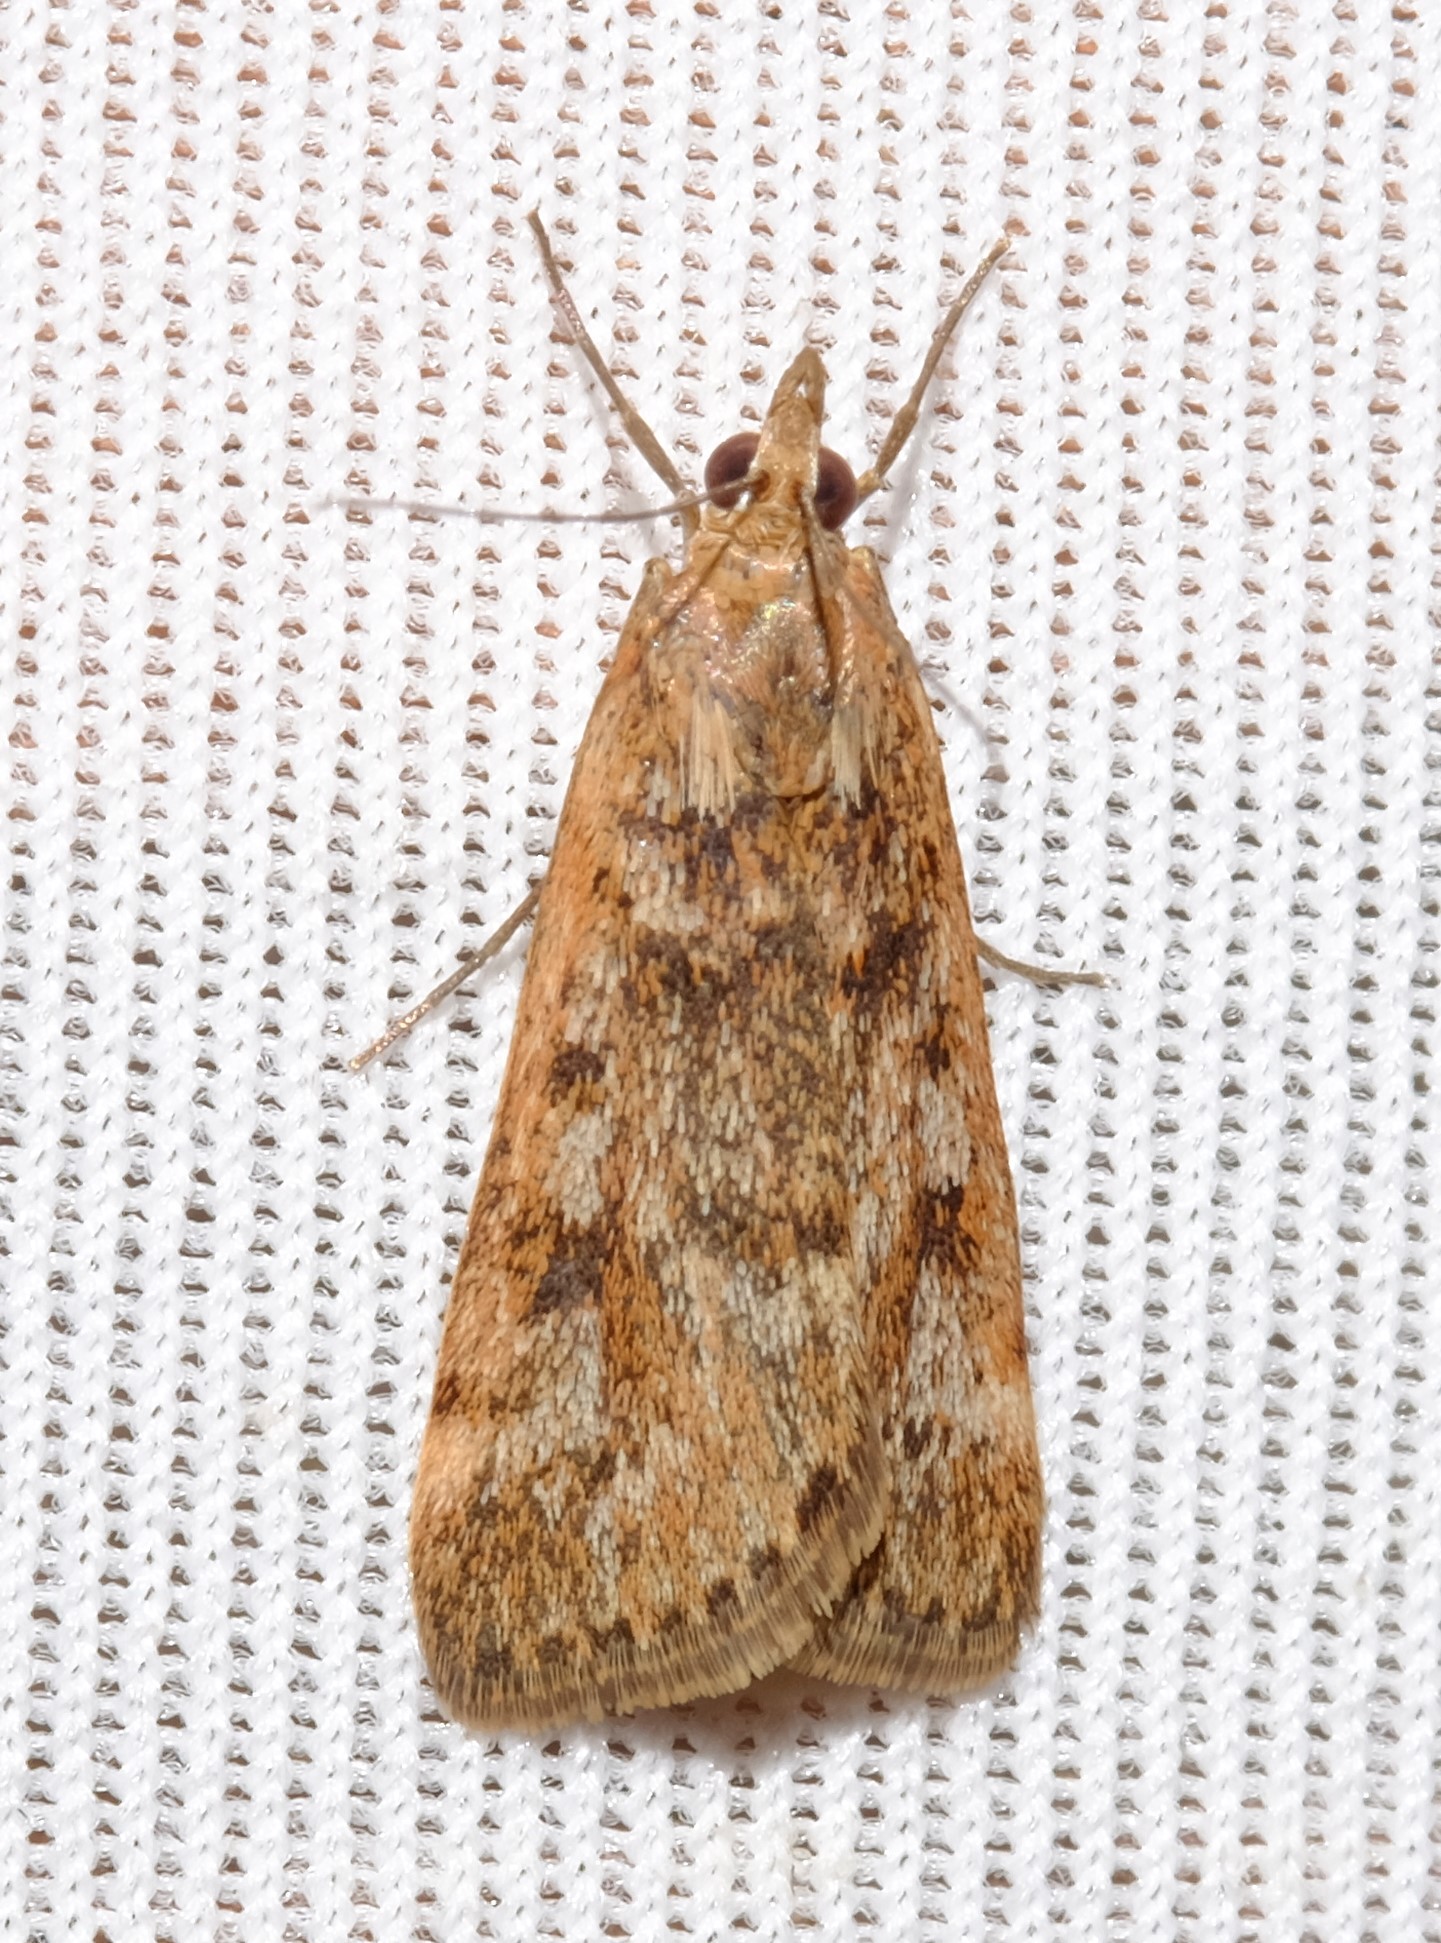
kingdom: Animalia
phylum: Arthropoda
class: Insecta
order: Lepidoptera
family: Crambidae
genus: Achyra
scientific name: Achyra affinitalis
